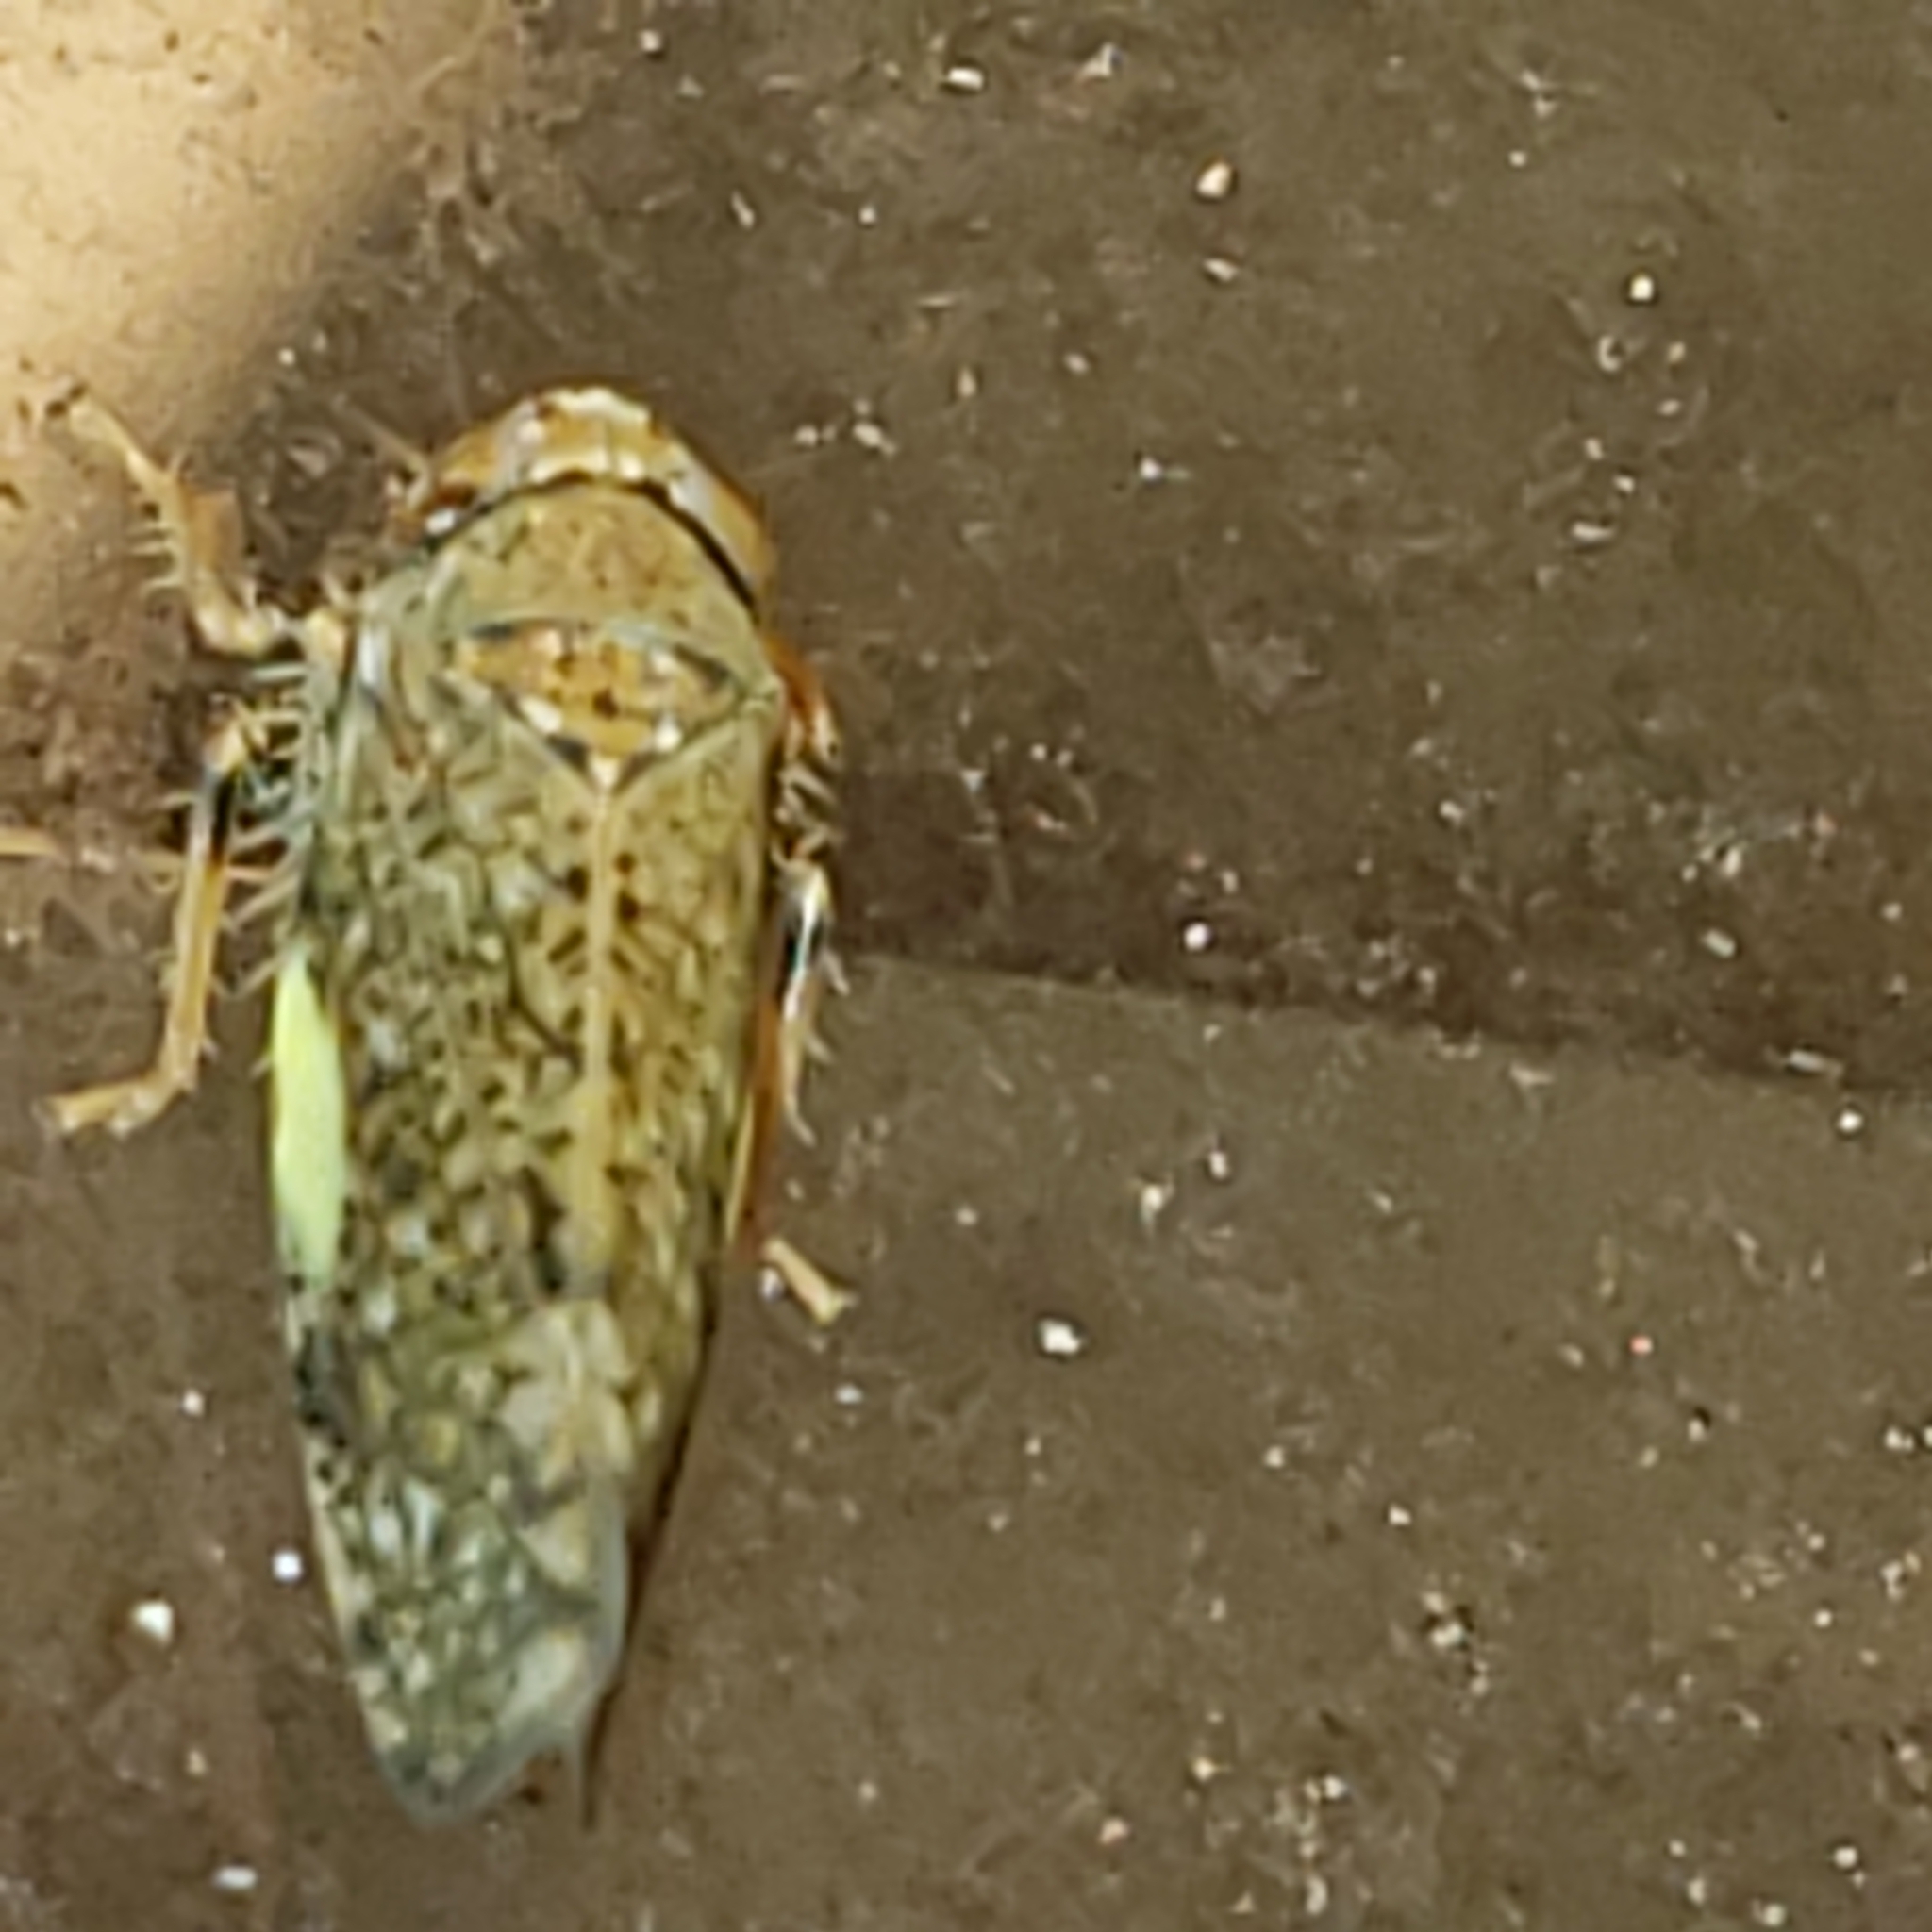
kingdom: Animalia
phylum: Arthropoda
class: Insecta
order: Hemiptera
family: Cicadellidae
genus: Orientus
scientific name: Orientus ishidae
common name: Japanese leafhopper
